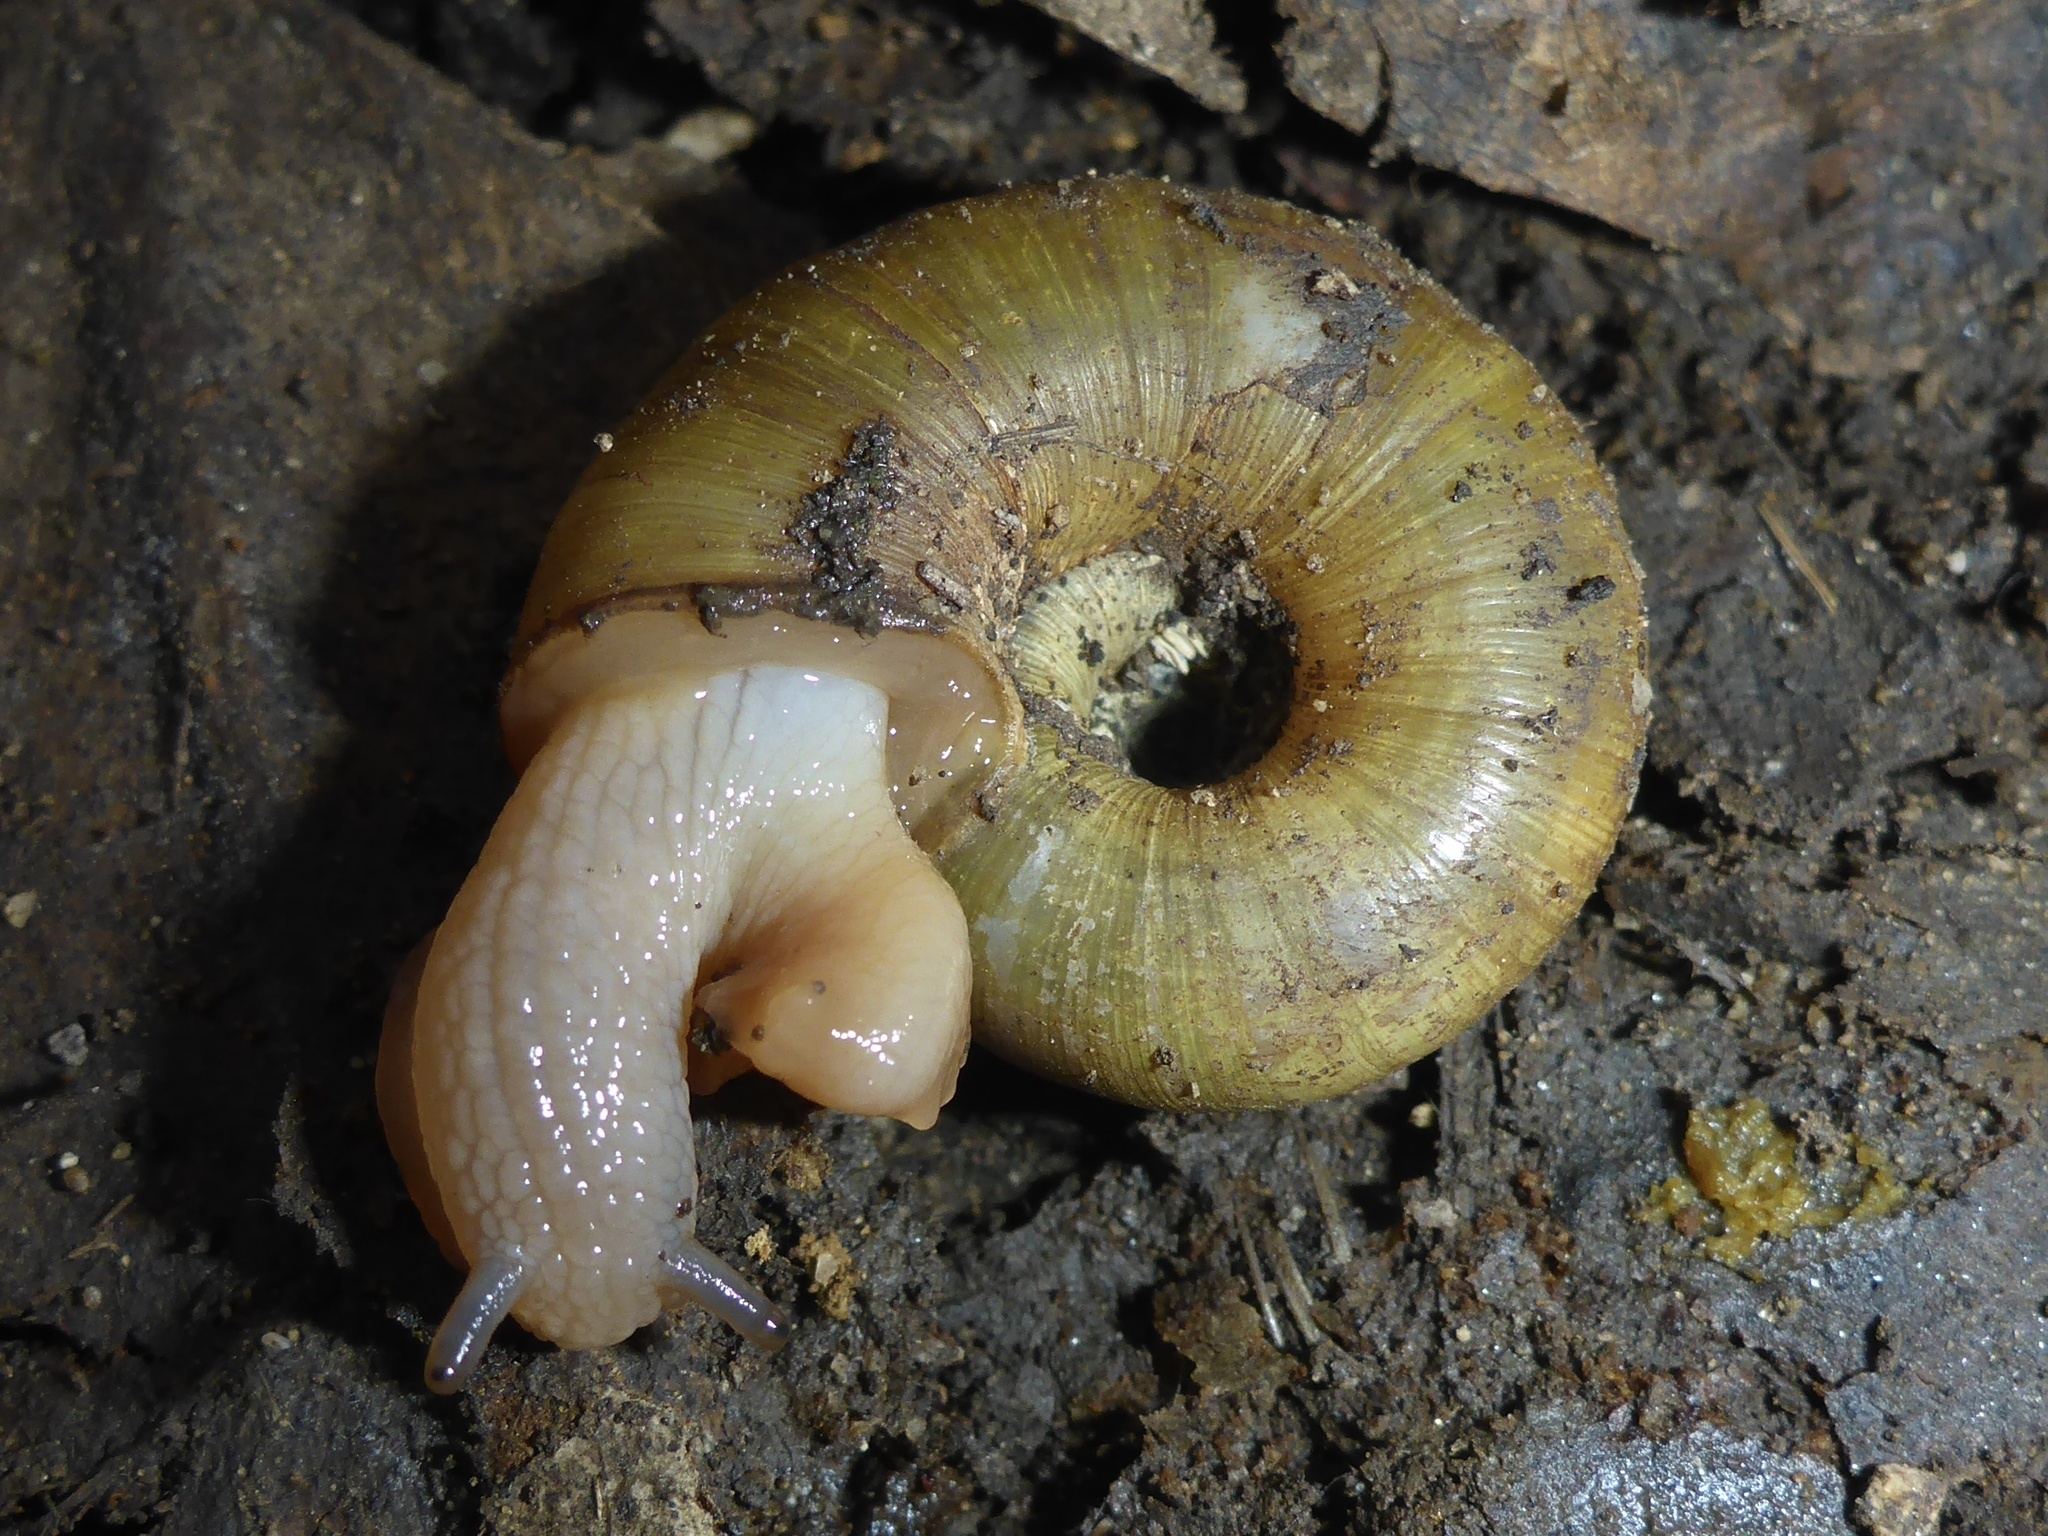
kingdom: Animalia
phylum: Mollusca
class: Gastropoda
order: Stylommatophora
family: Haplotrematidae
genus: Haplotrema
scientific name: Haplotrema minimum
